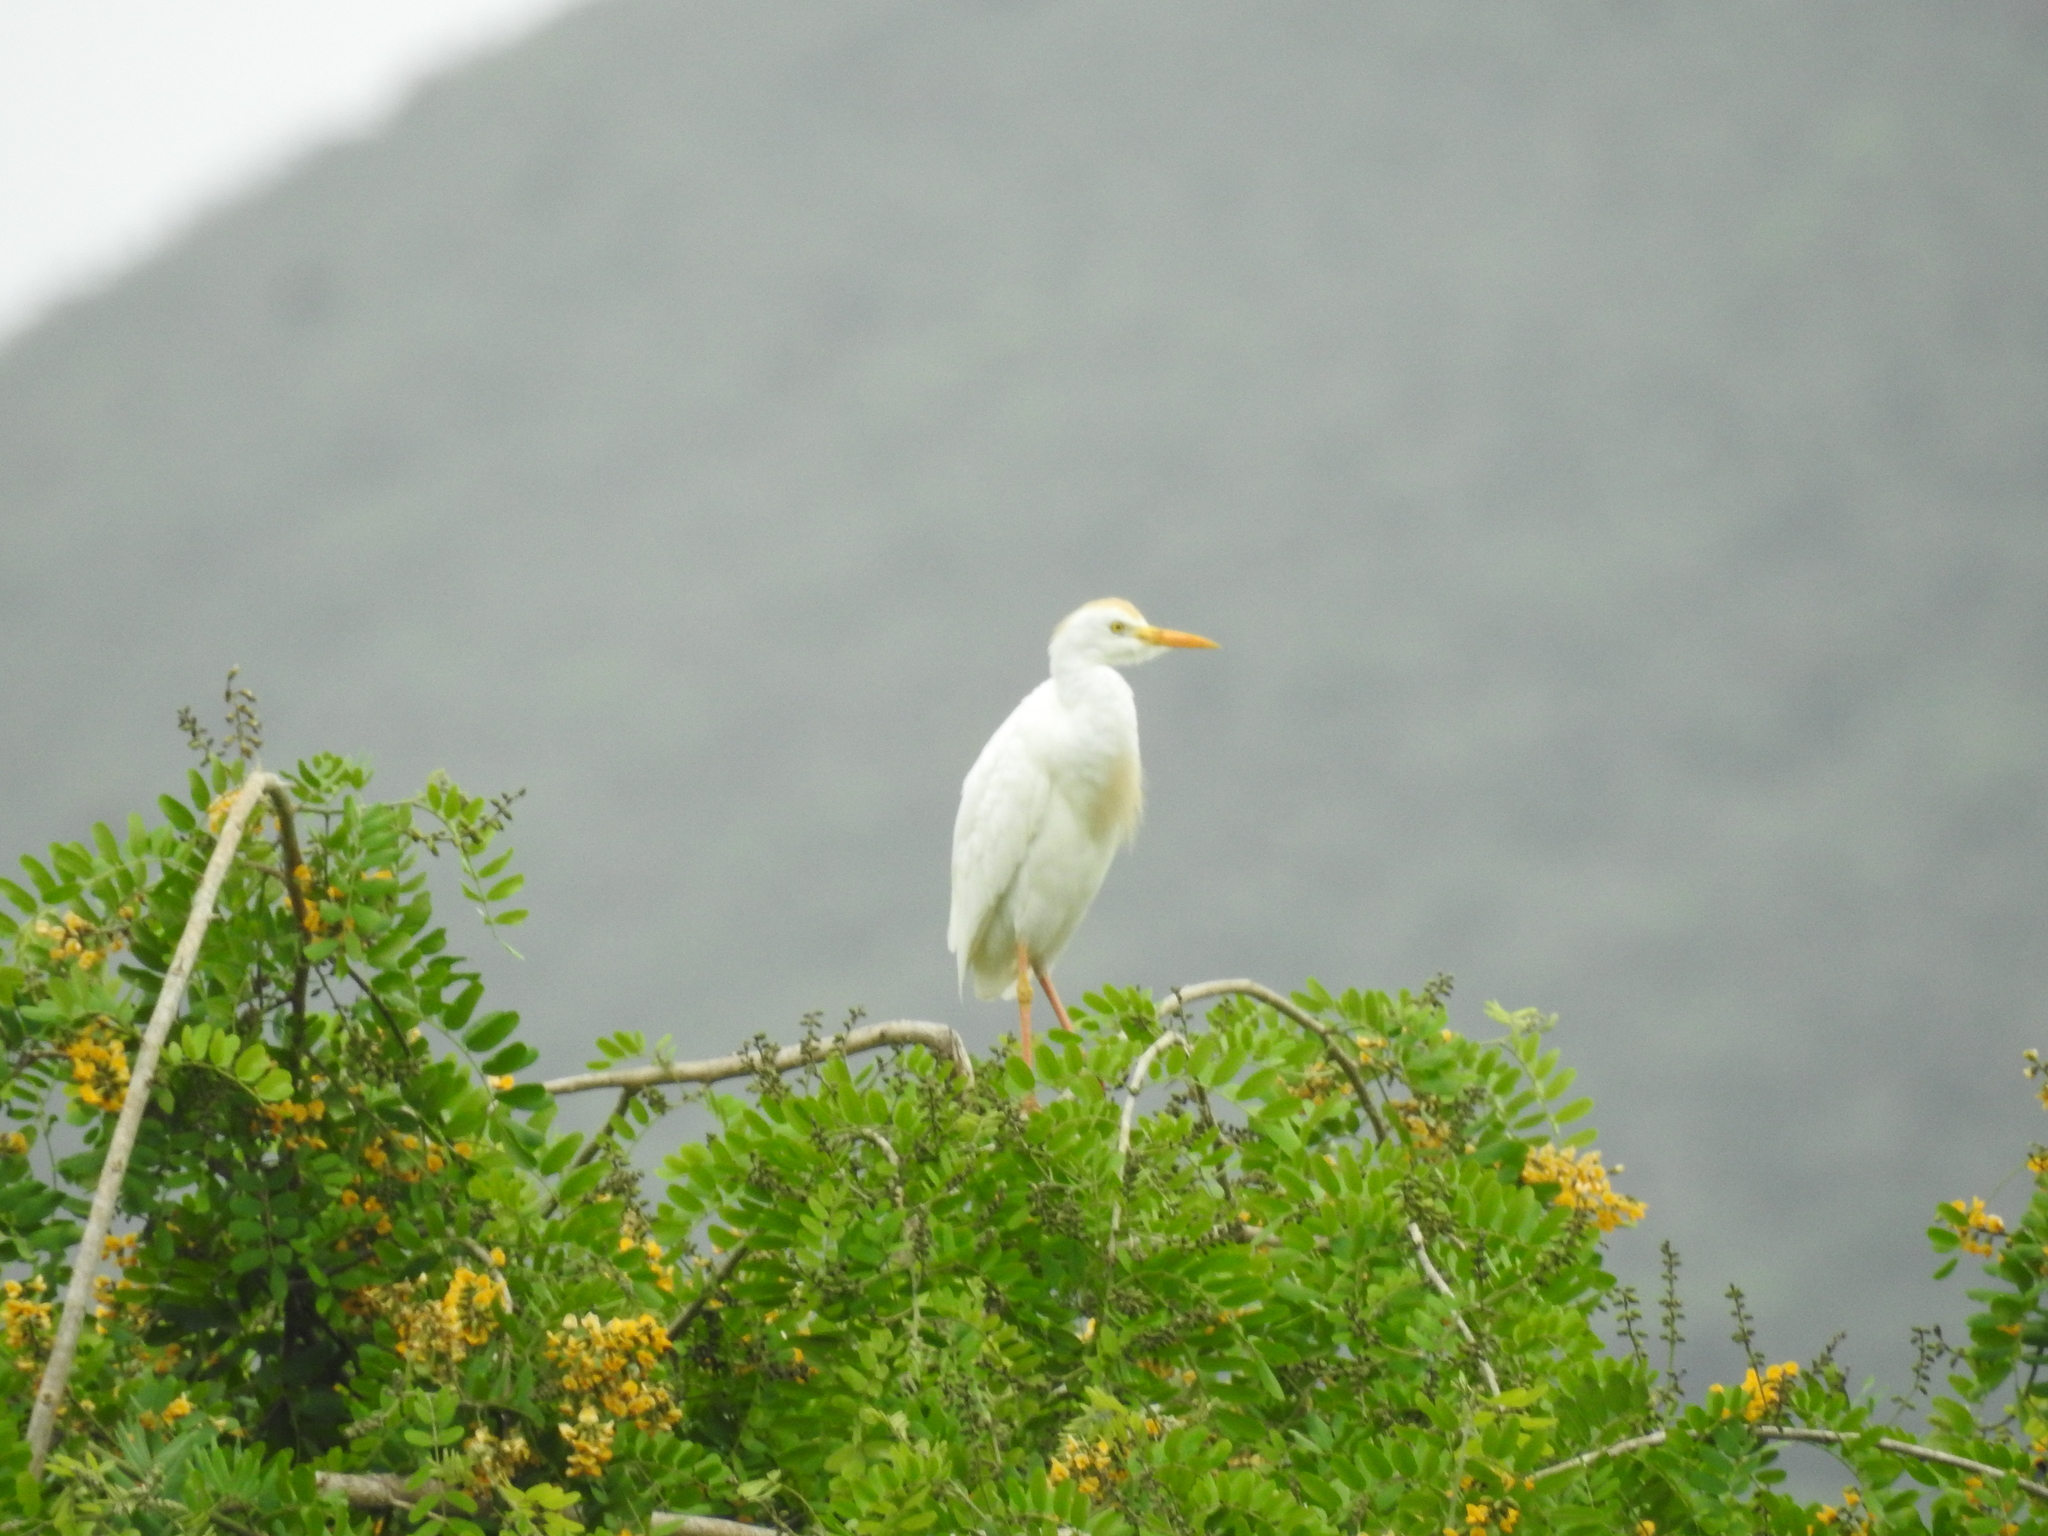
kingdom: Animalia
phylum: Chordata
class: Aves
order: Pelecaniformes
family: Ardeidae
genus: Bubulcus
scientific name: Bubulcus ibis
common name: Cattle egret
